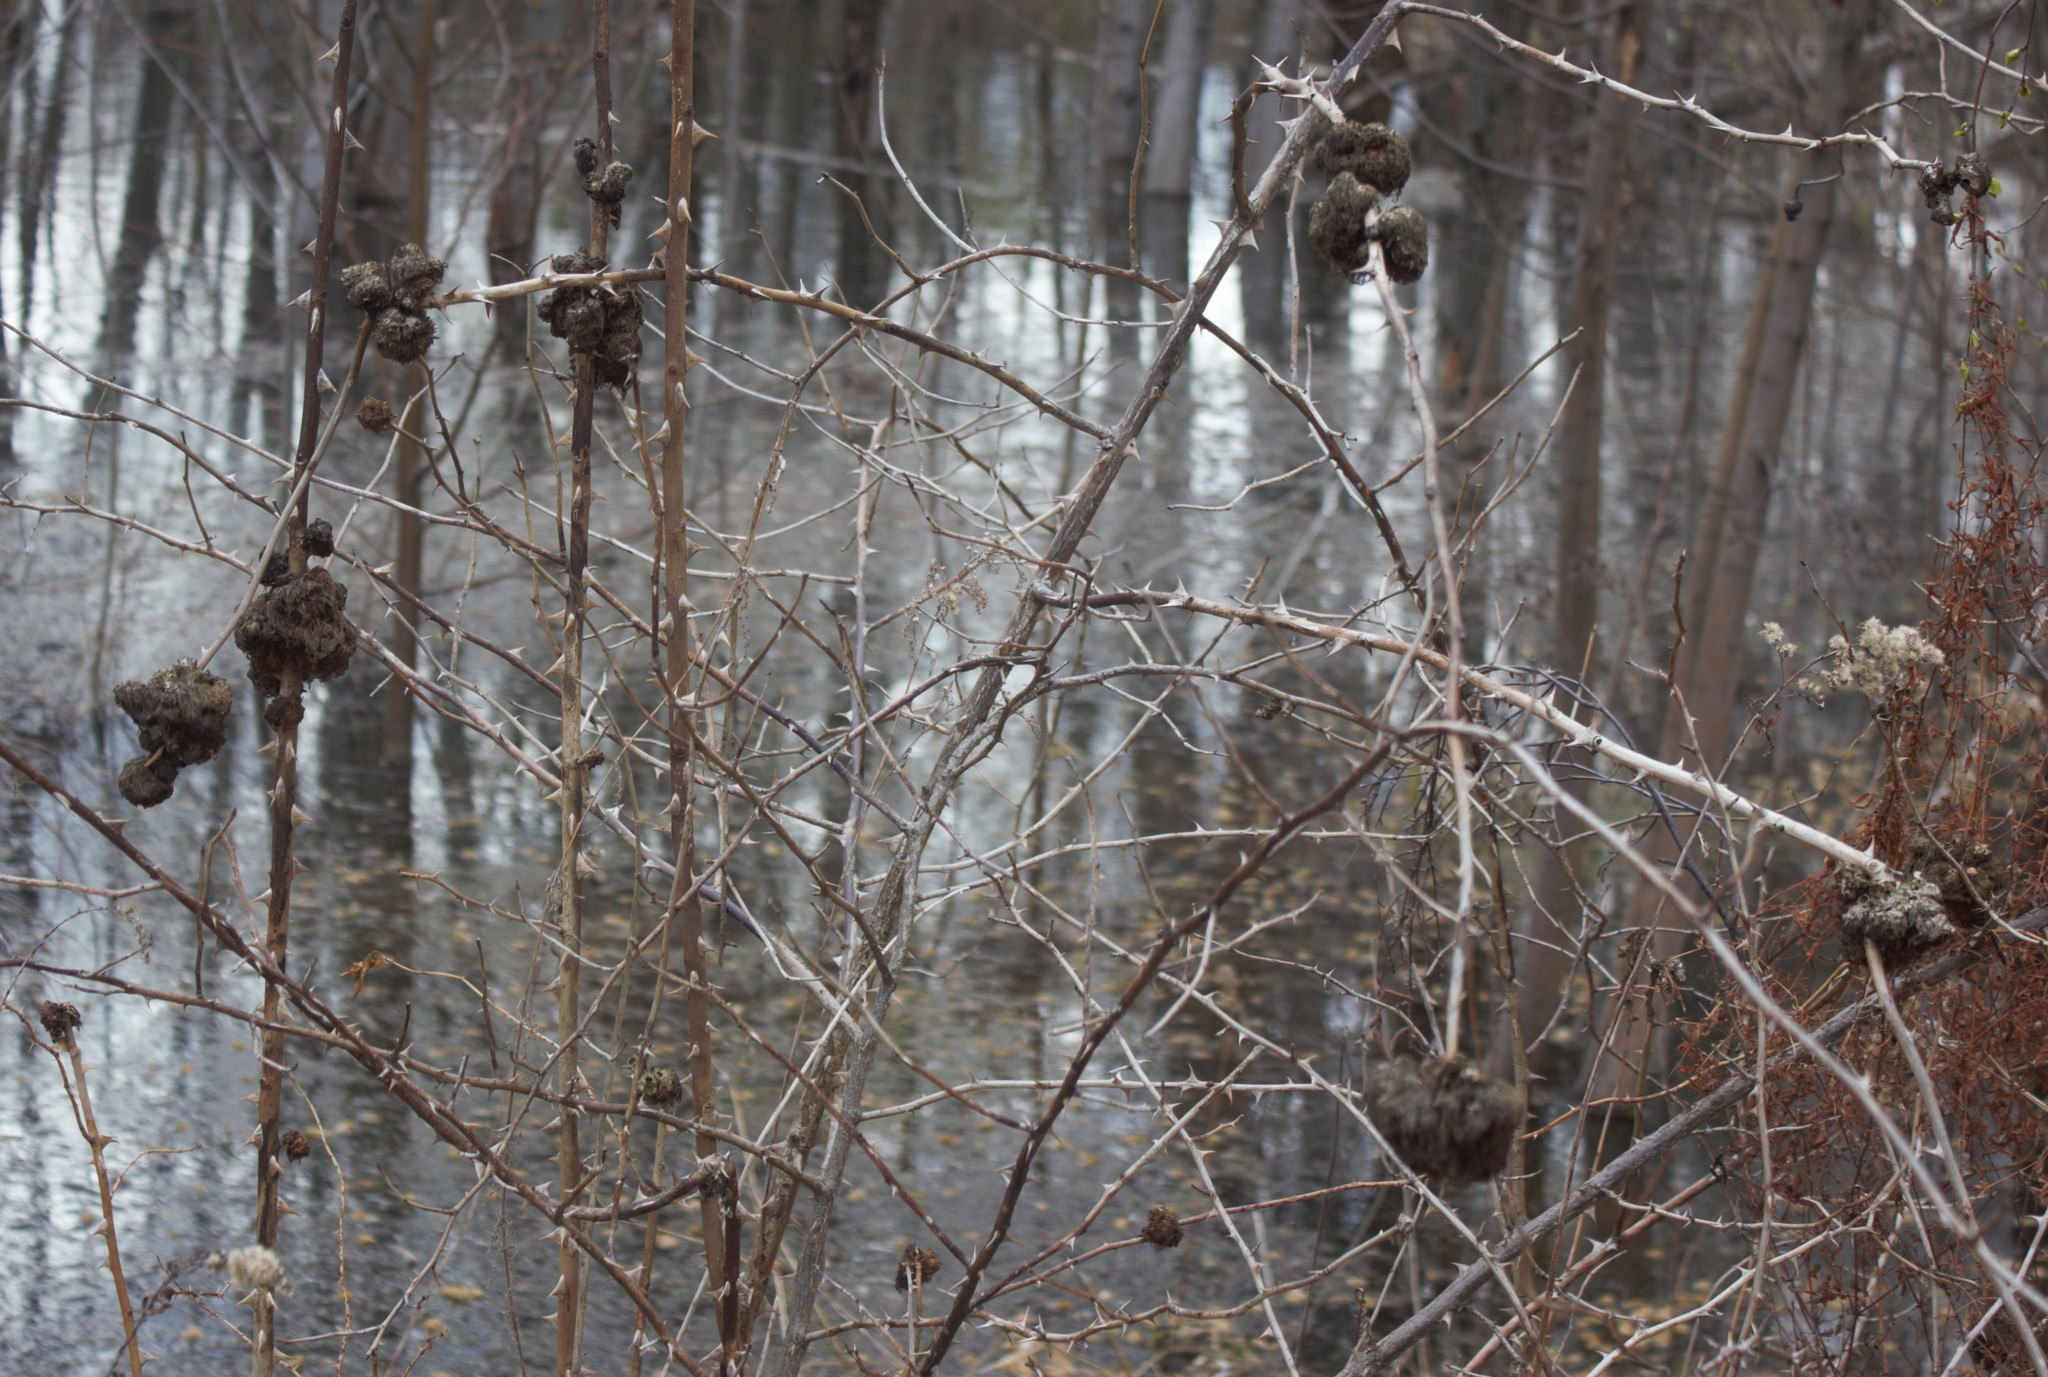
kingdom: Animalia
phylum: Arthropoda
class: Insecta
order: Hymenoptera
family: Cynipidae
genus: Diplolepis
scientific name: Diplolepis rosae
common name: Bedeguar gall
